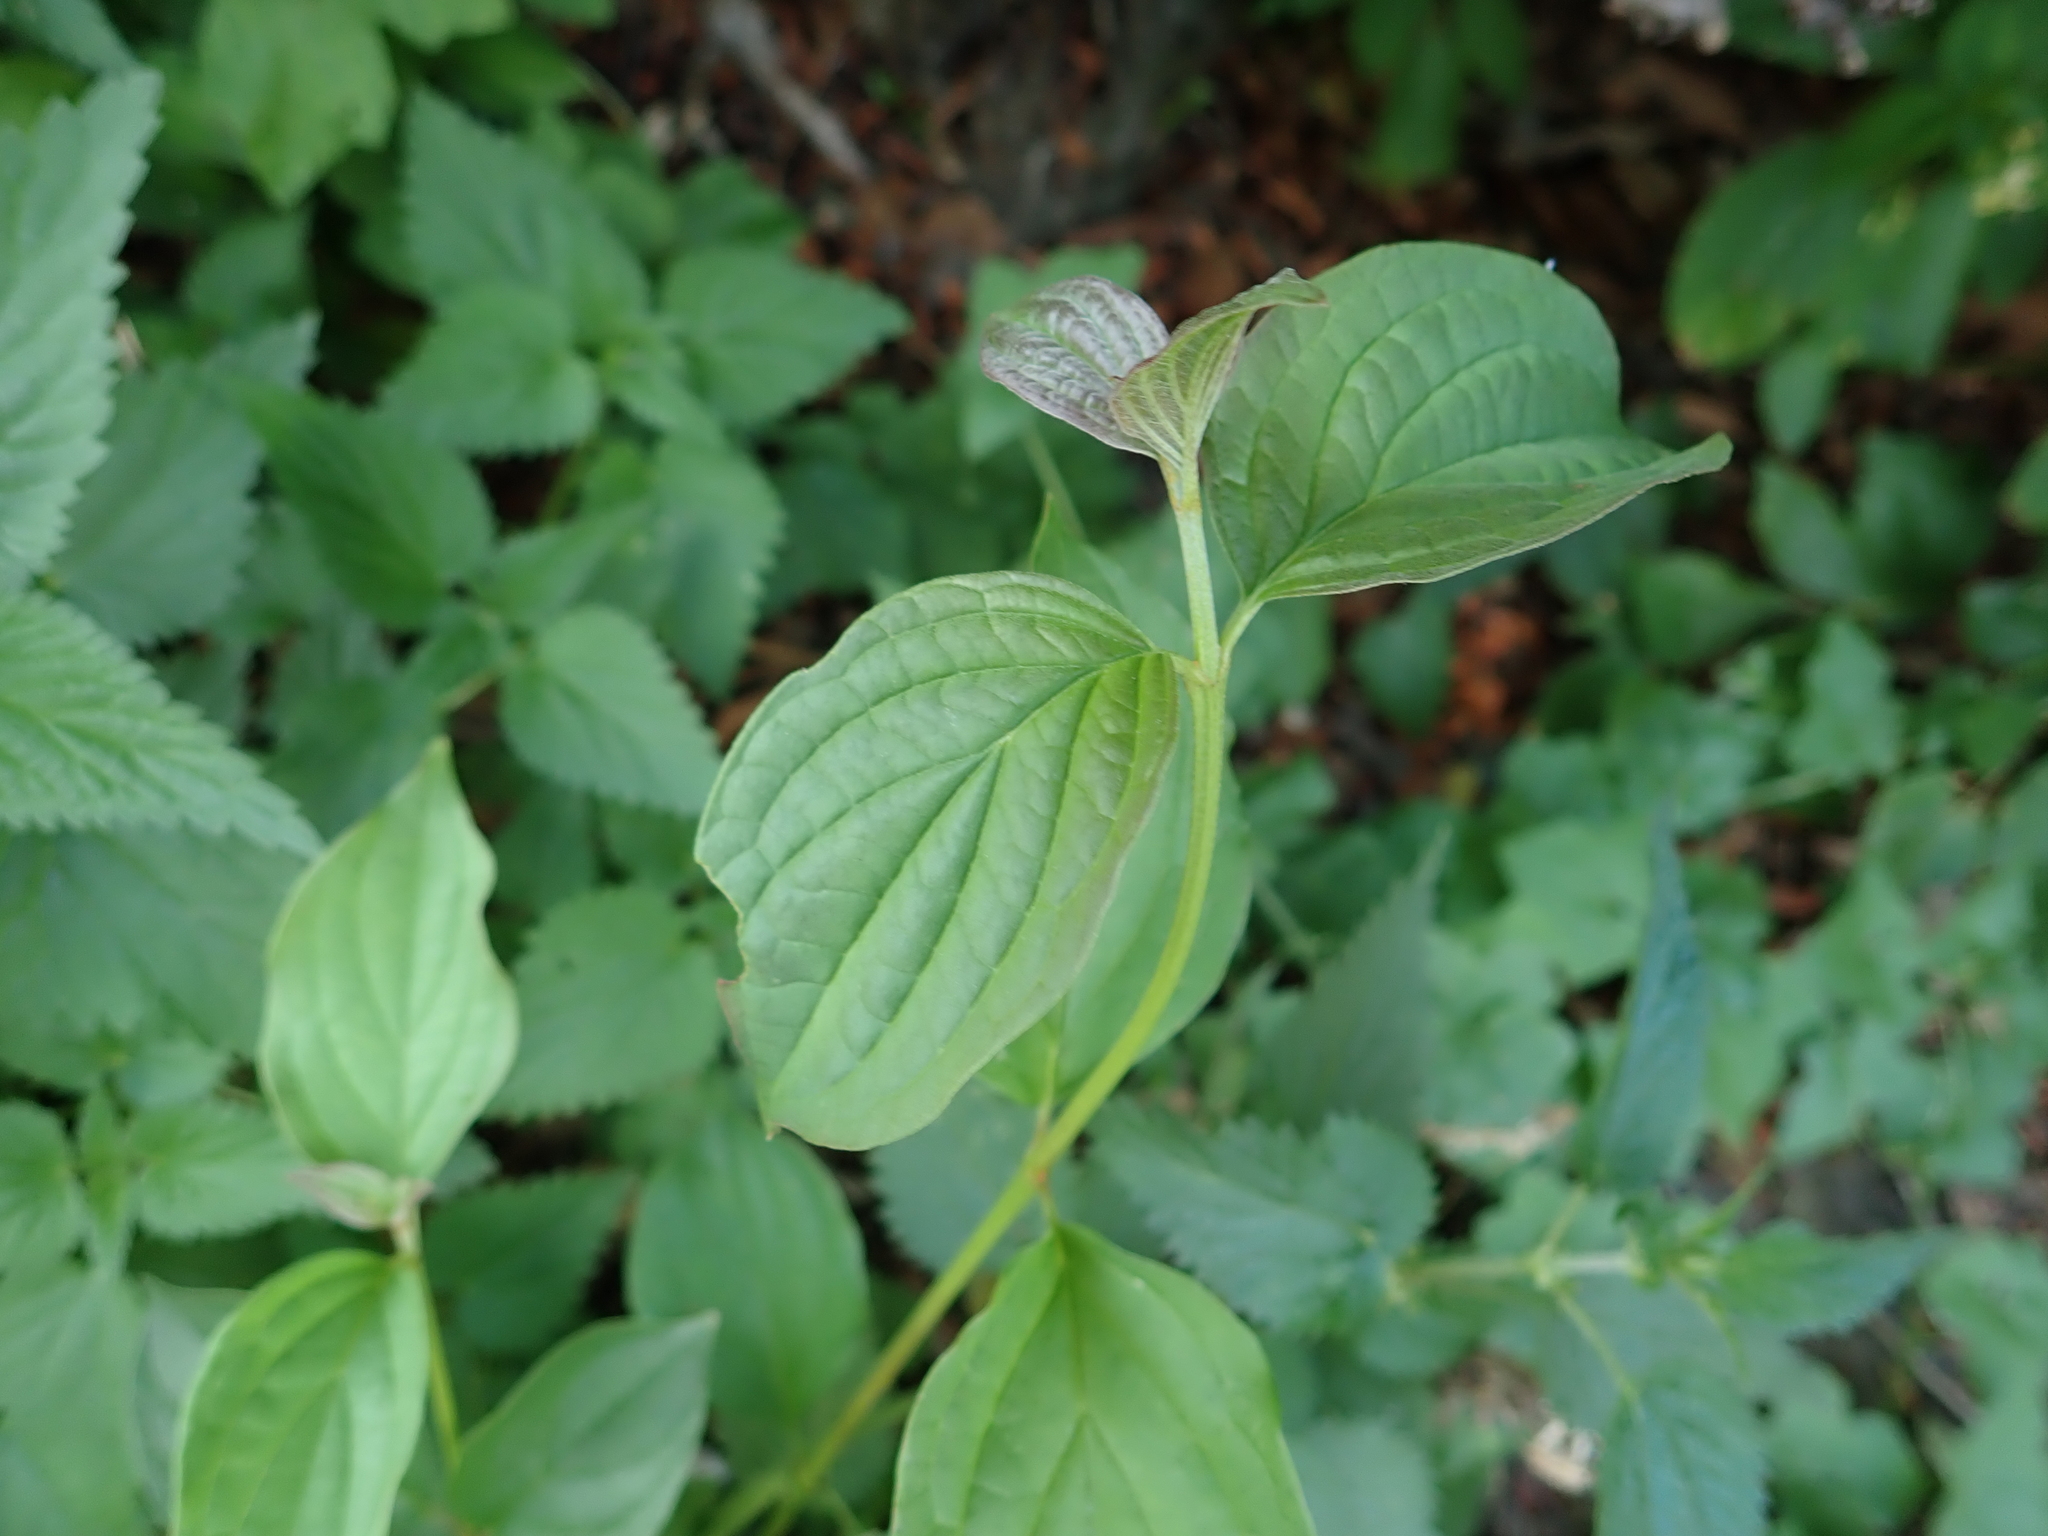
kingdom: Plantae
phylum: Tracheophyta
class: Magnoliopsida
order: Cornales
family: Cornaceae
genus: Cornus
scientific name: Cornus sanguinea
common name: Dogwood
